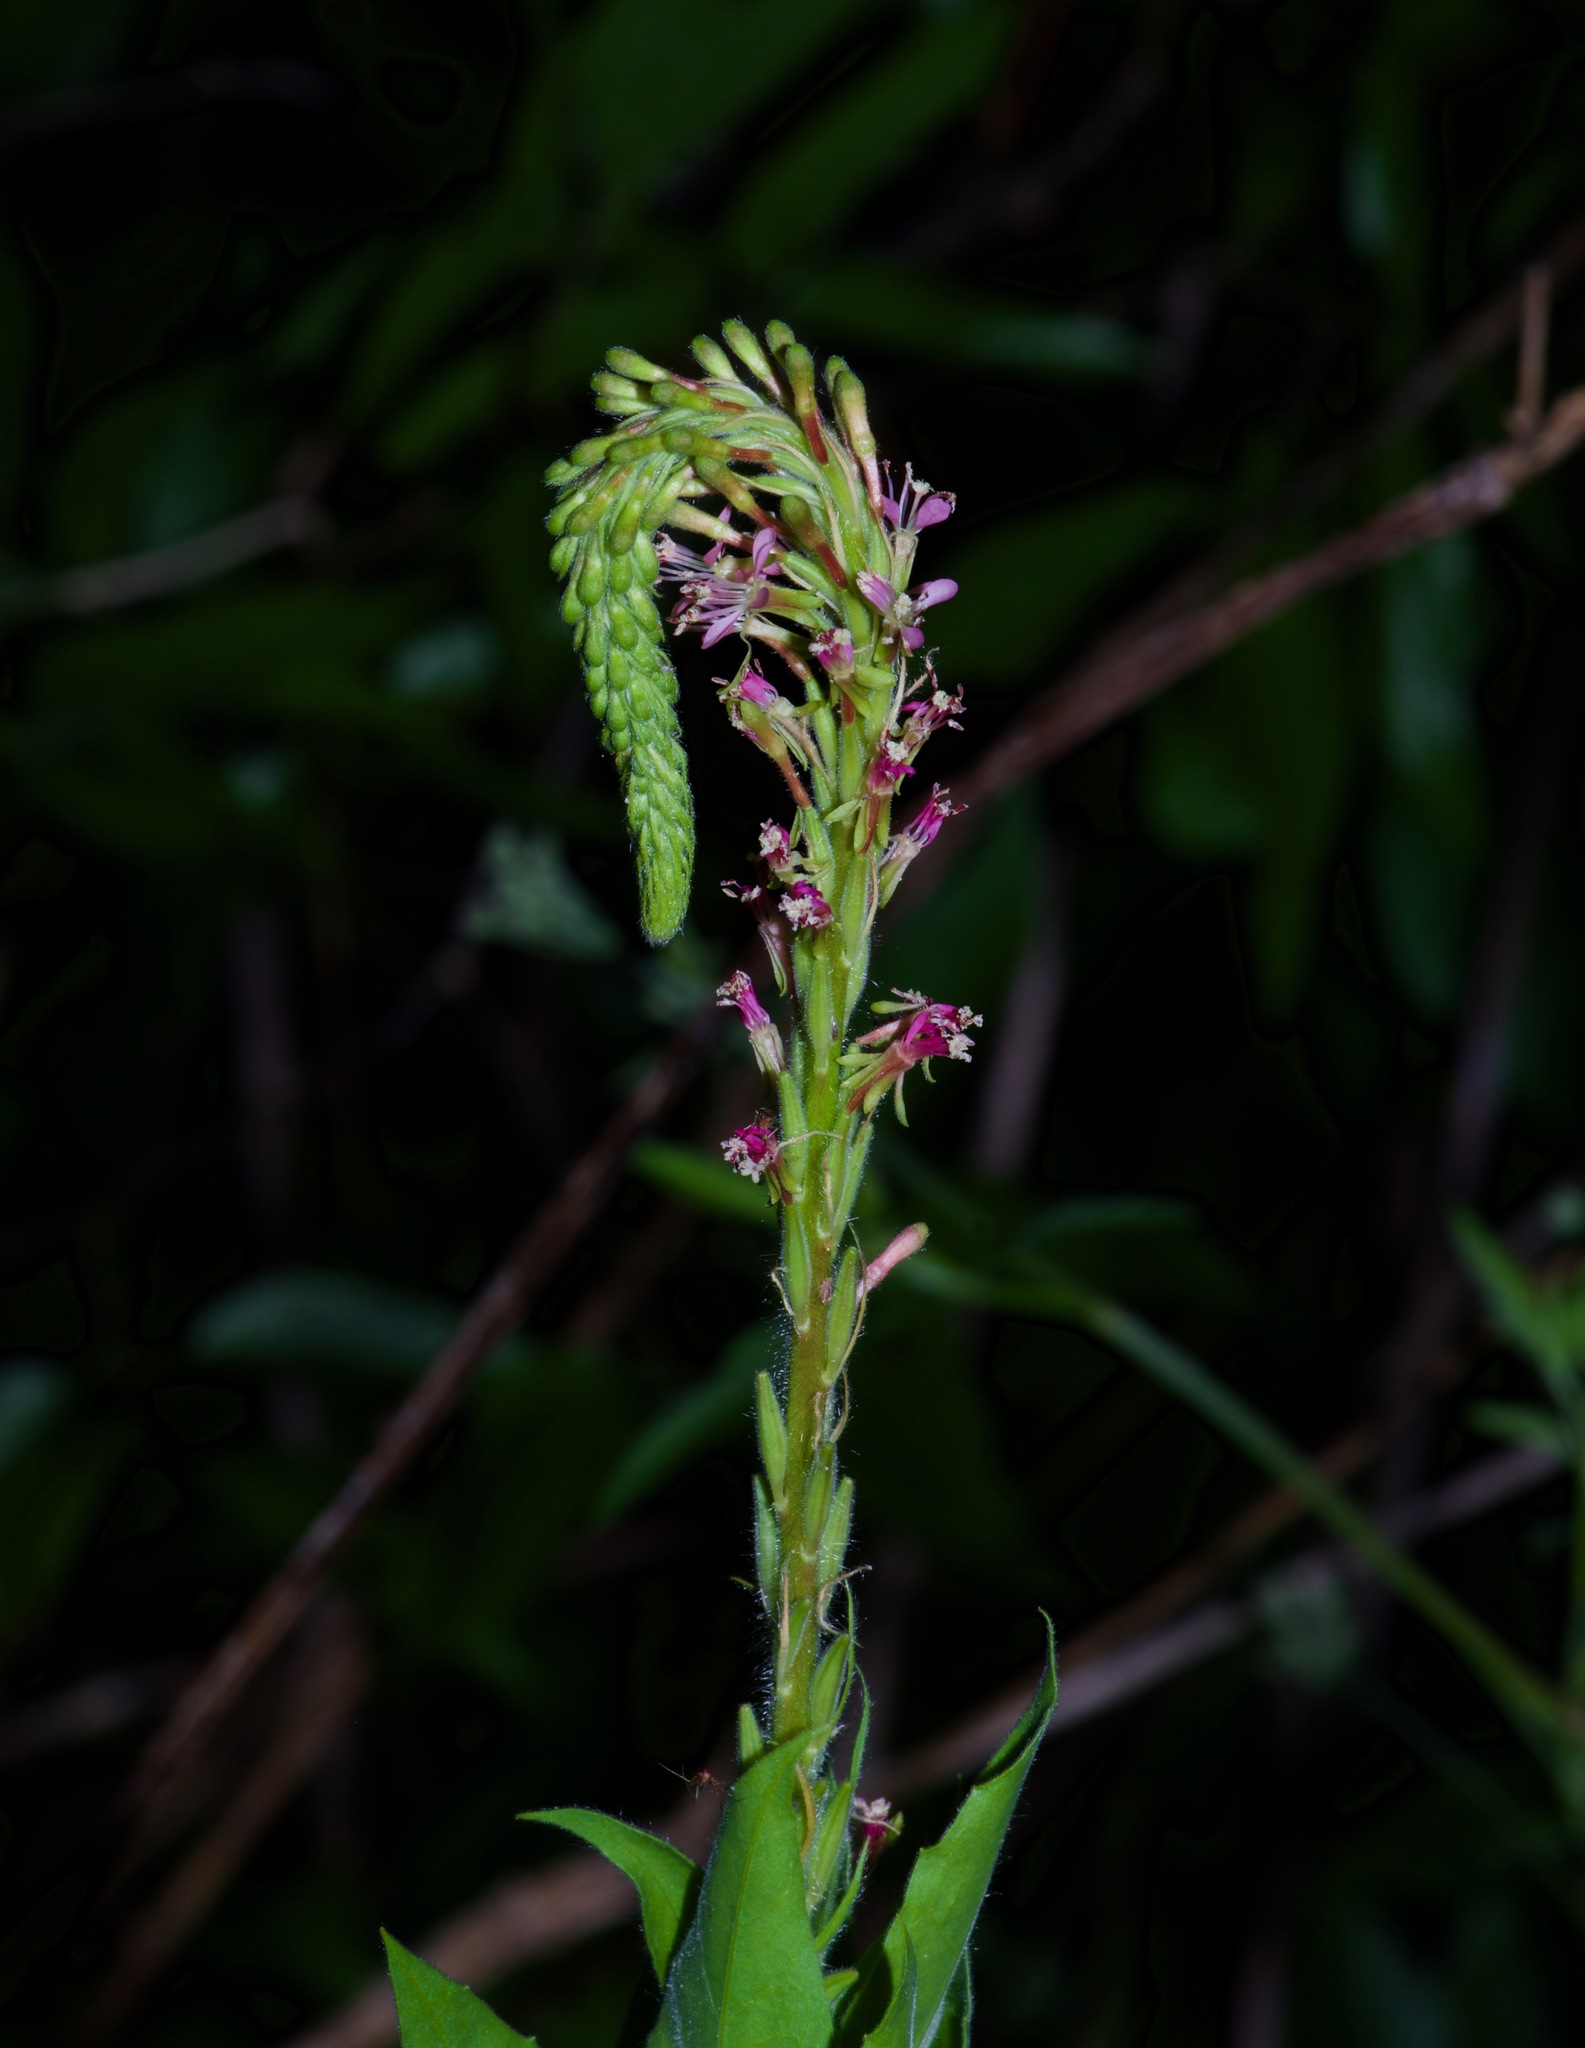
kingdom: Plantae
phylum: Tracheophyta
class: Magnoliopsida
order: Myrtales
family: Onagraceae
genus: Oenothera
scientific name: Oenothera curtiflora
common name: Velvetweed
